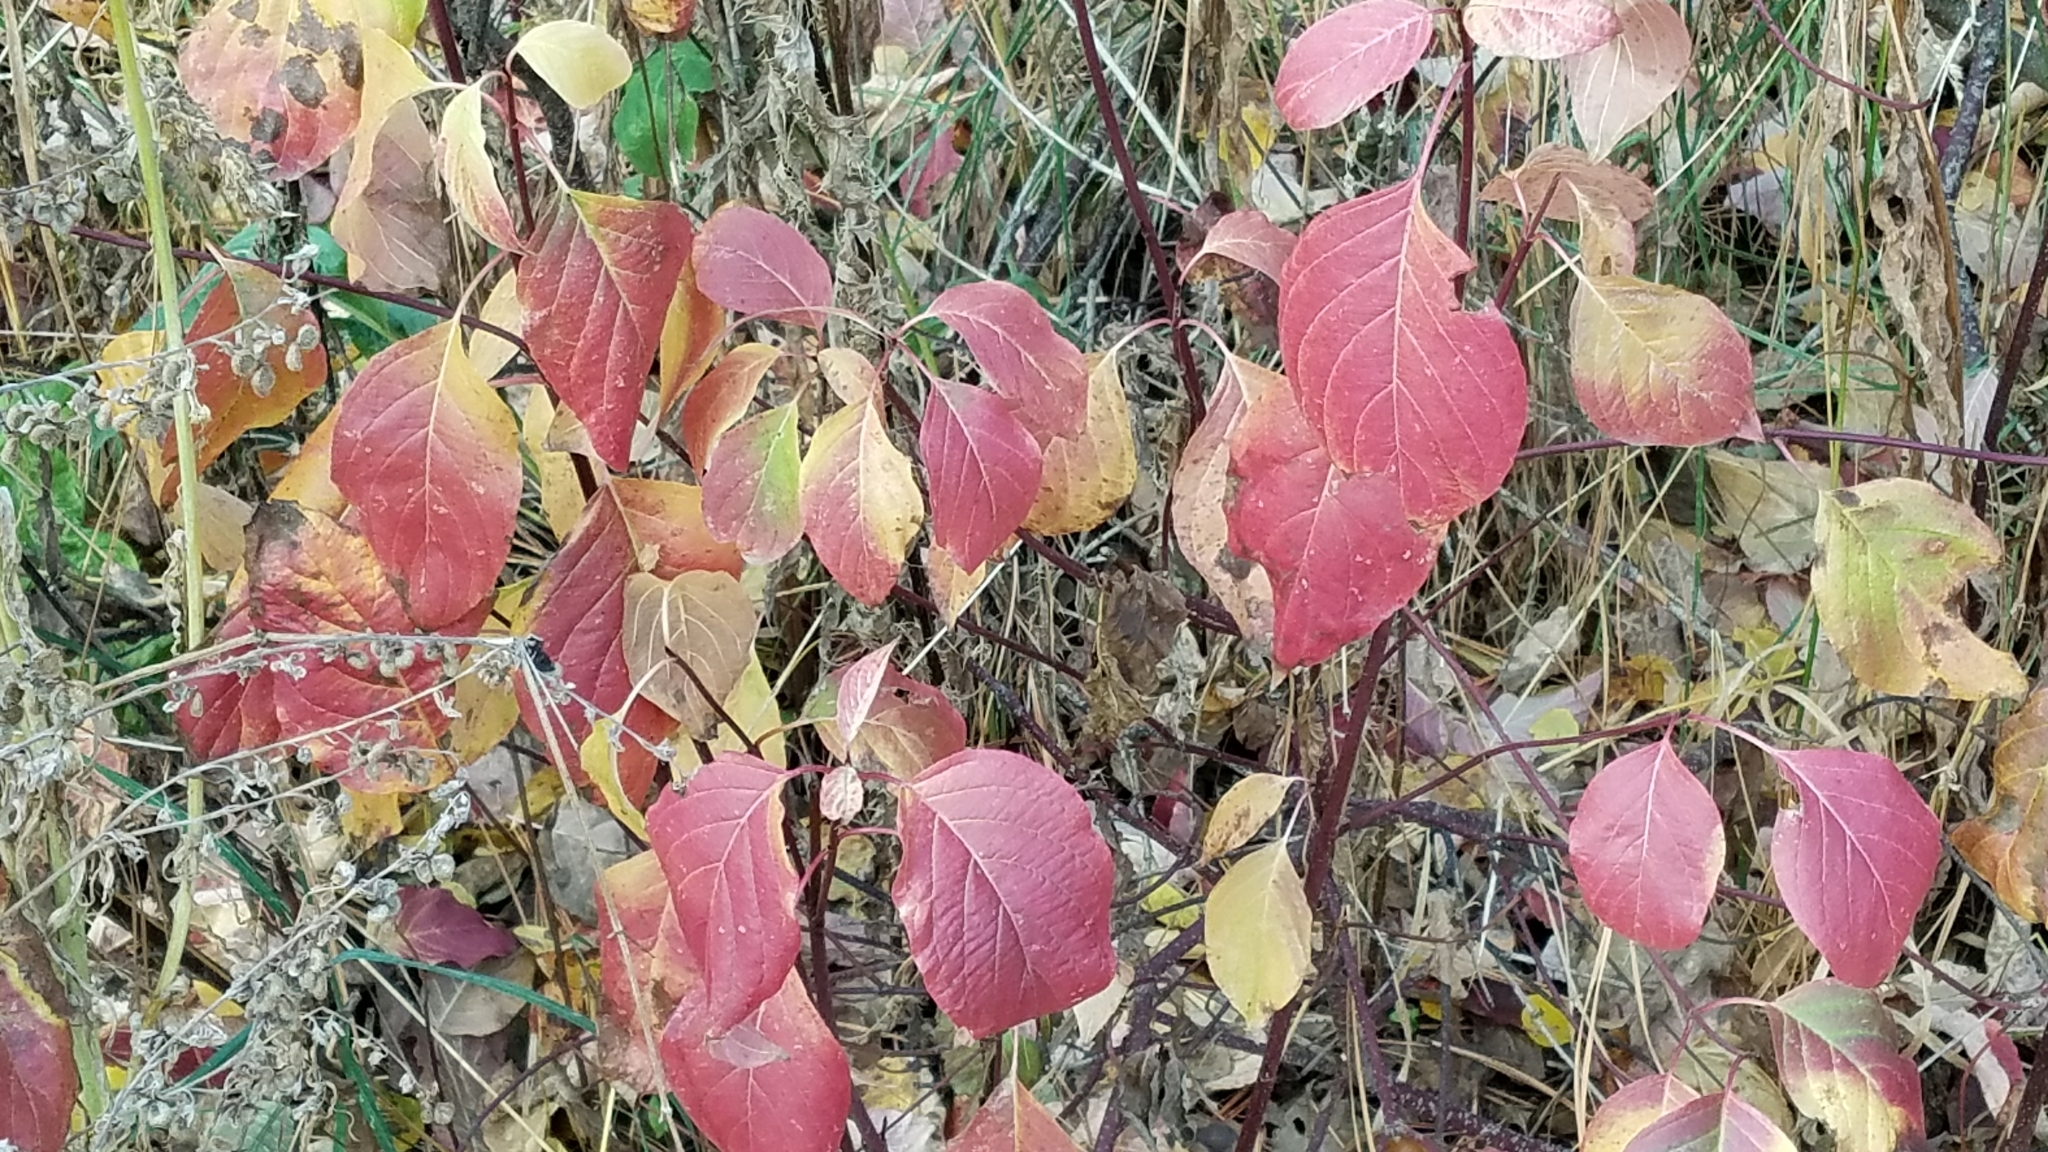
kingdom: Plantae
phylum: Tracheophyta
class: Magnoliopsida
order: Cornales
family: Cornaceae
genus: Cornus
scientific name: Cornus sericea
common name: Red-osier dogwood
